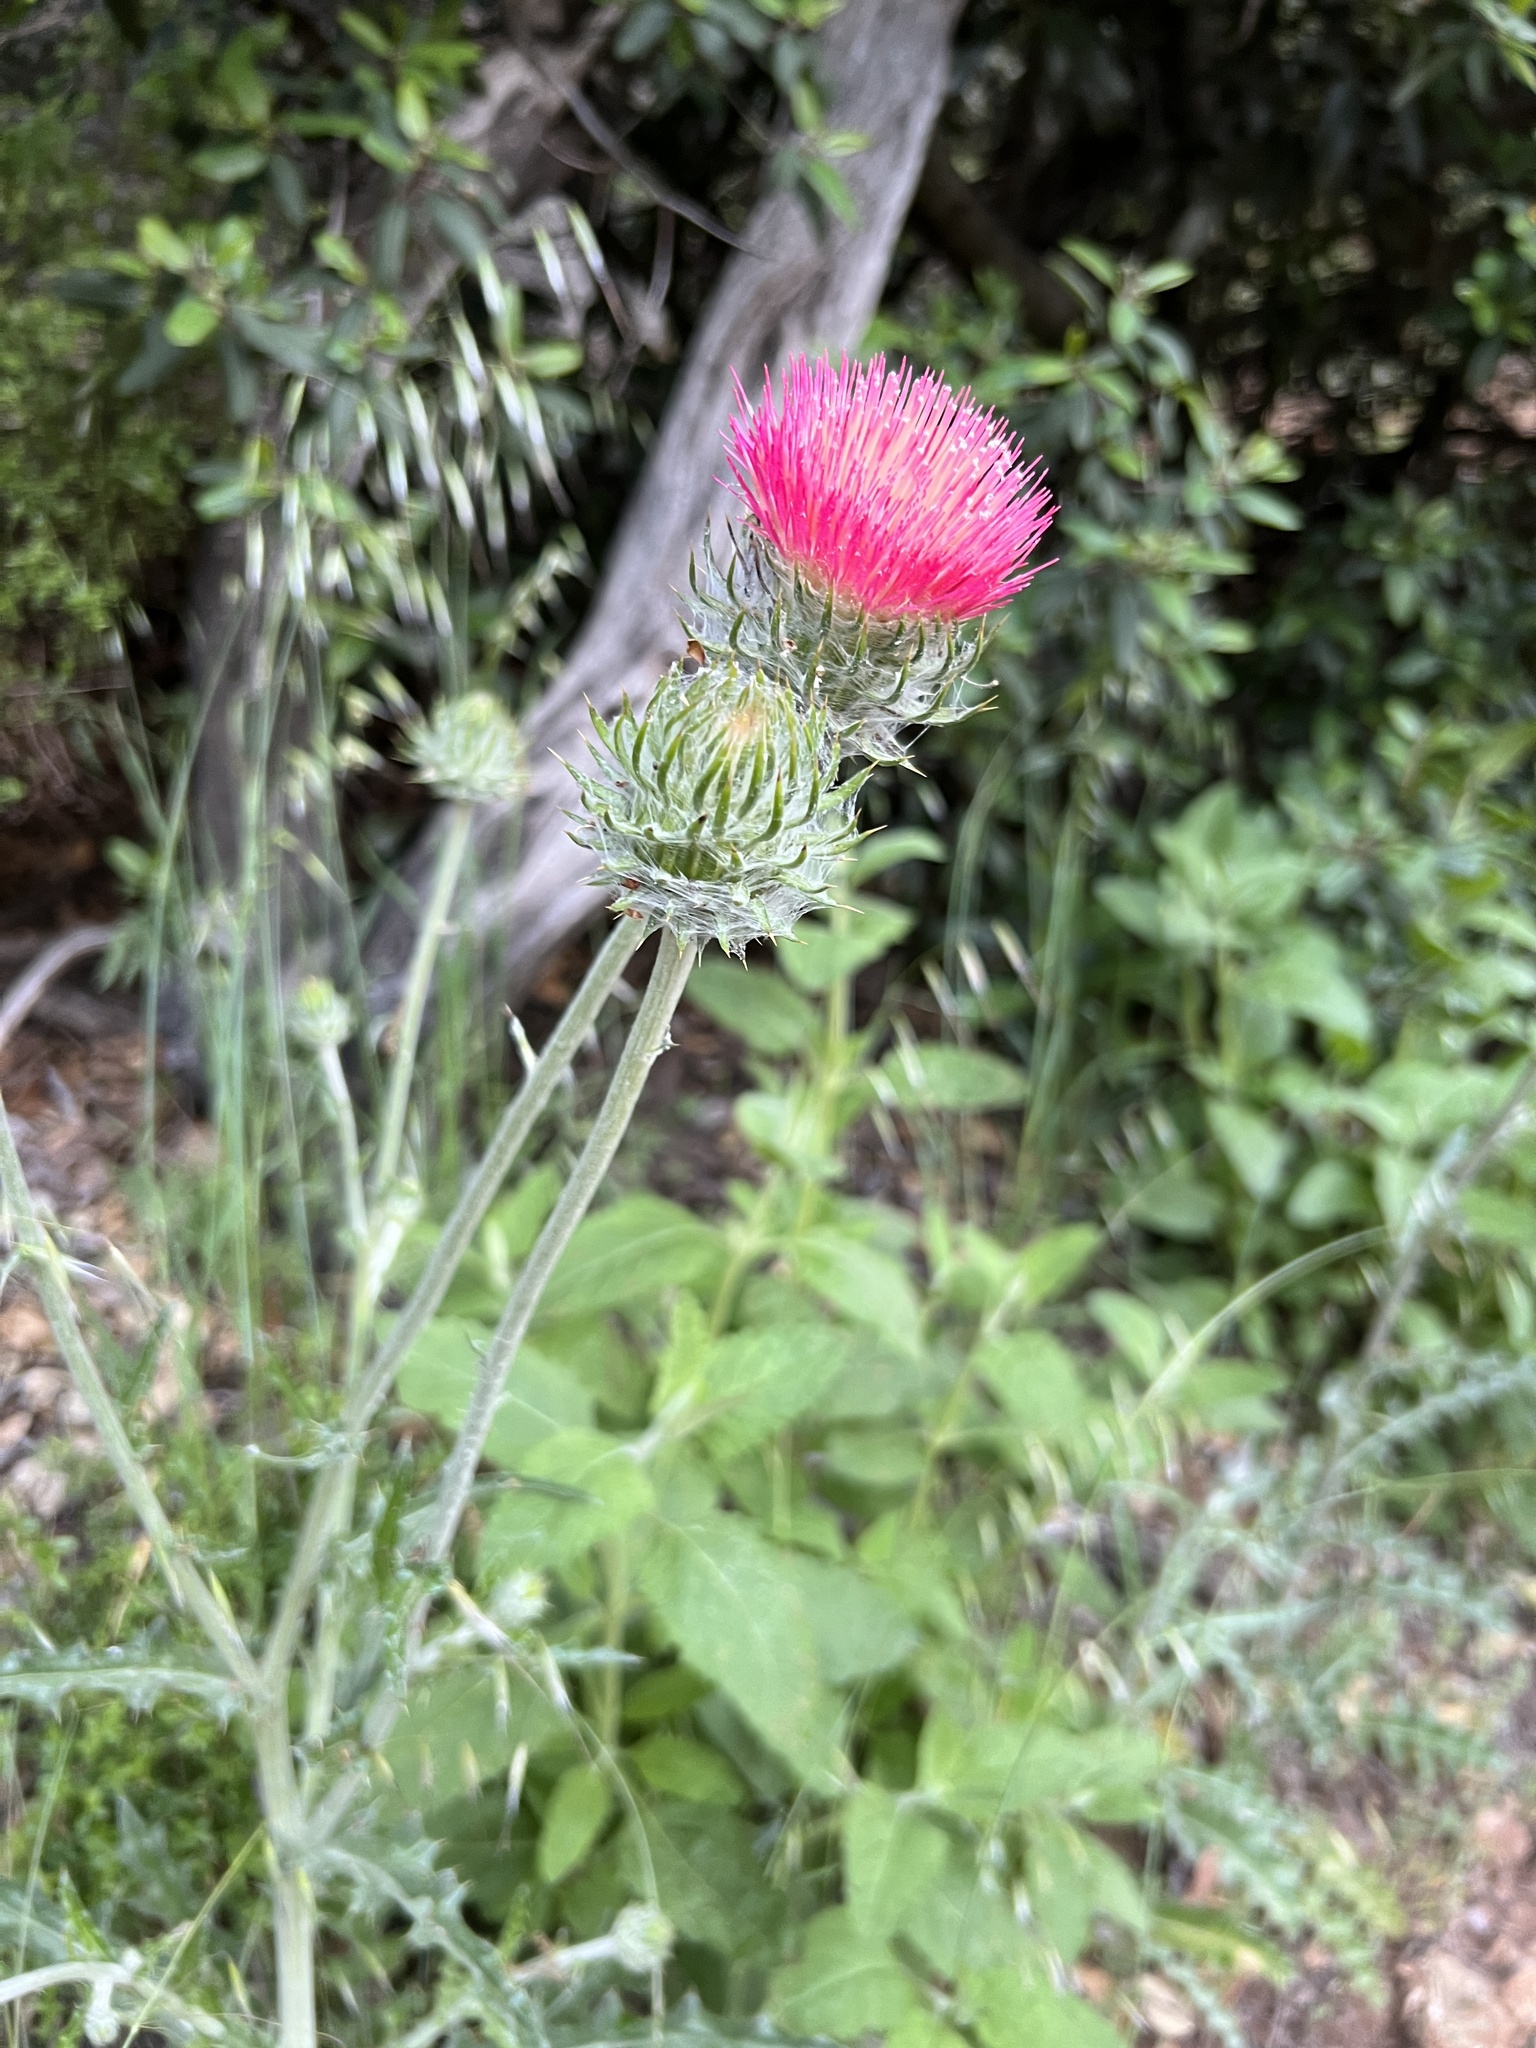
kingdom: Plantae
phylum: Tracheophyta
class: Magnoliopsida
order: Asterales
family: Asteraceae
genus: Cirsium
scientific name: Cirsium occidentale
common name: Western thistle
